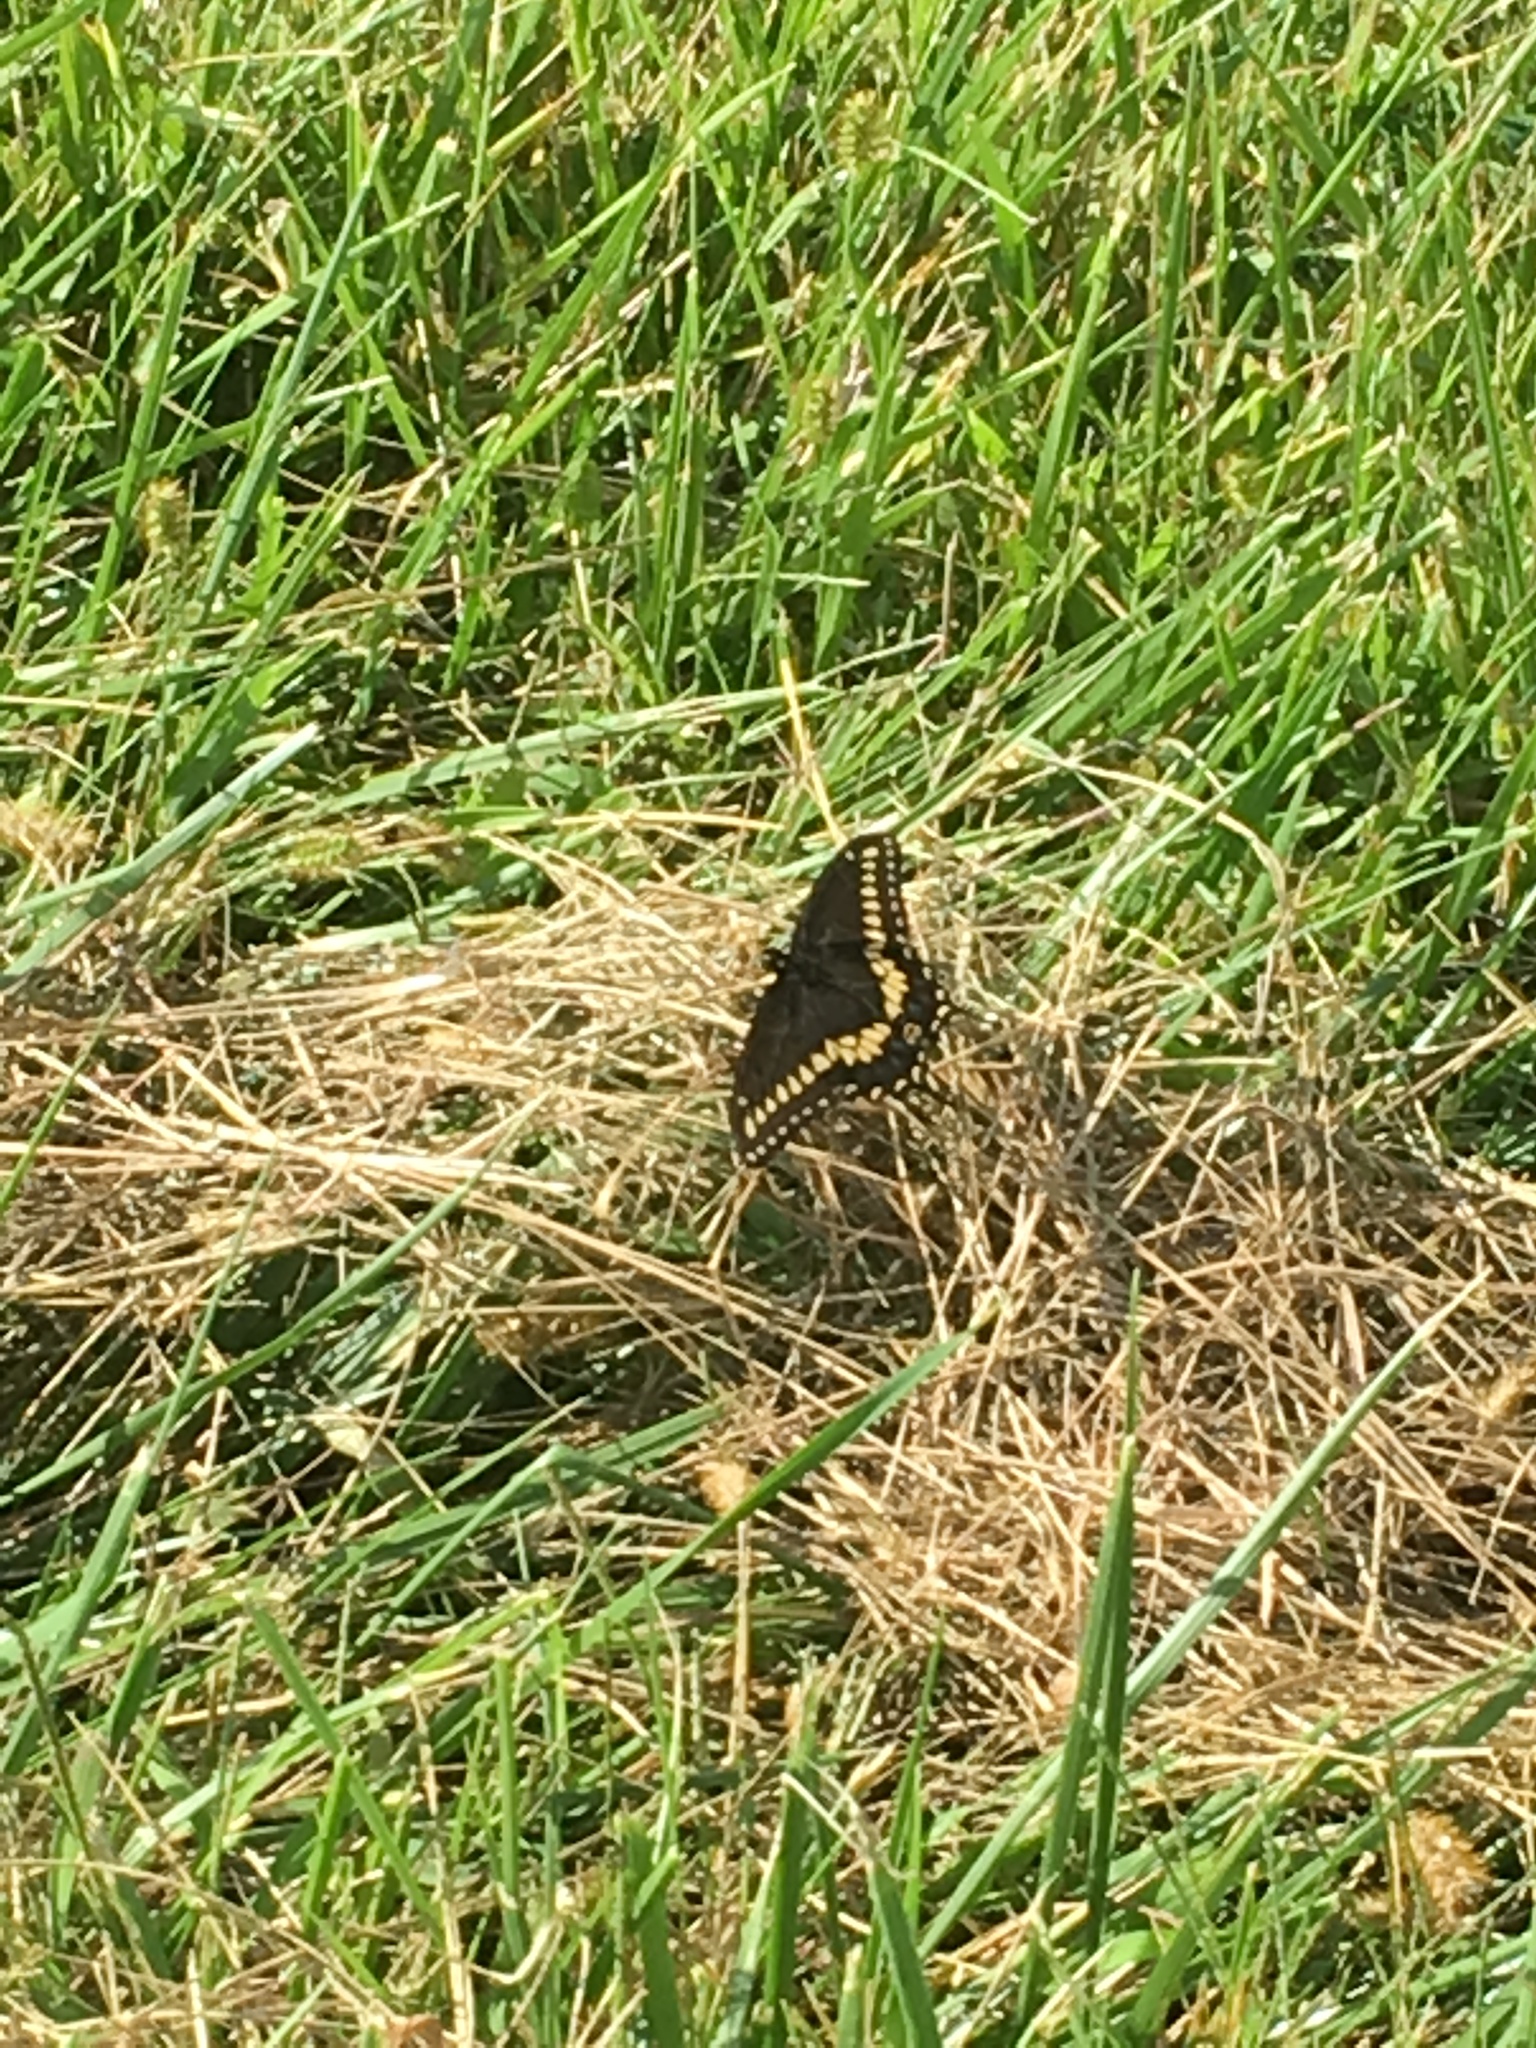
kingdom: Animalia
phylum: Arthropoda
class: Insecta
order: Lepidoptera
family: Papilionidae
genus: Papilio
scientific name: Papilio polyxenes
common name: Black swallowtail
